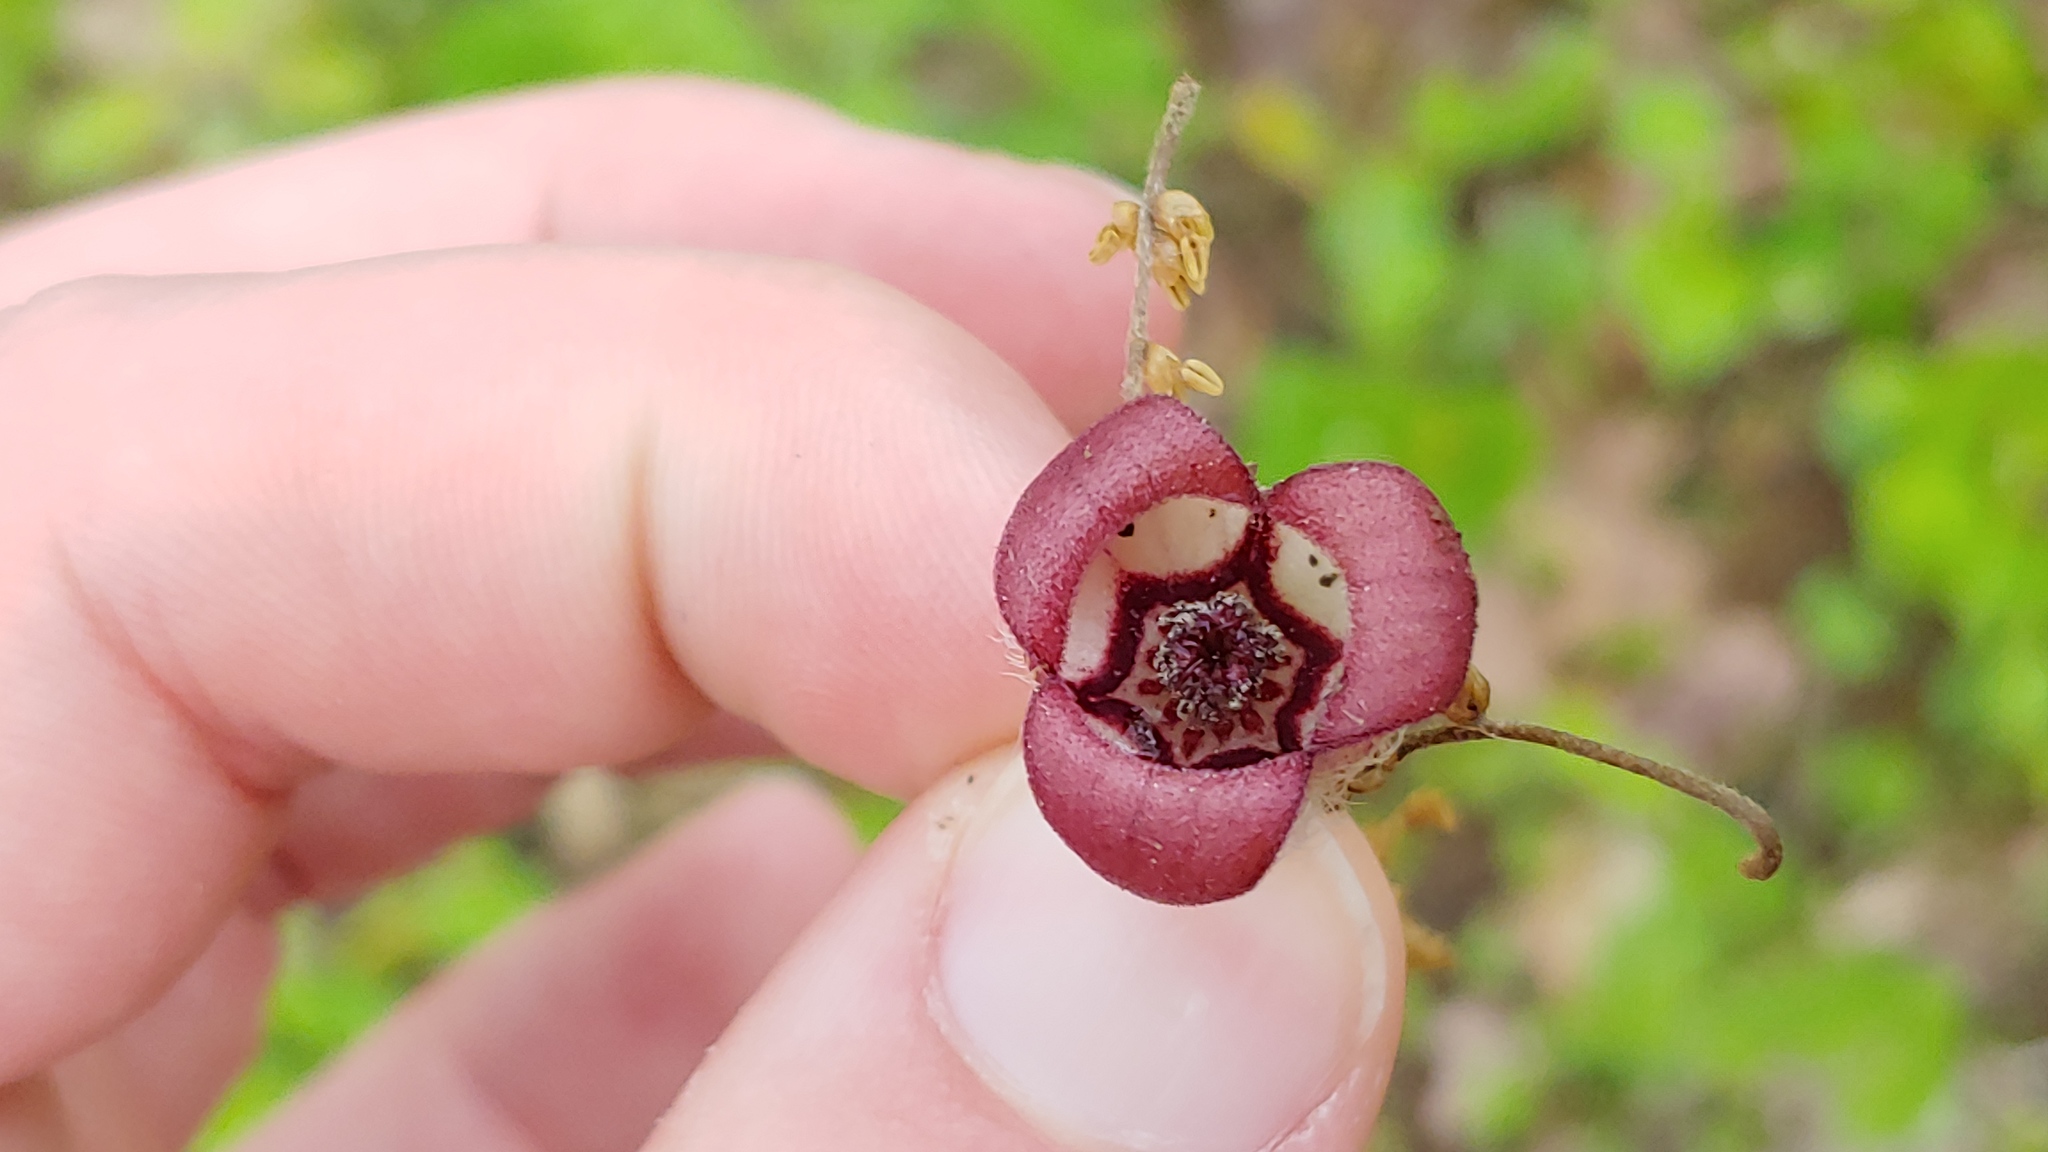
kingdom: Plantae
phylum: Tracheophyta
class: Magnoliopsida
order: Piperales
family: Aristolochiaceae
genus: Asarum
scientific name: Asarum canadense
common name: Wild ginger
